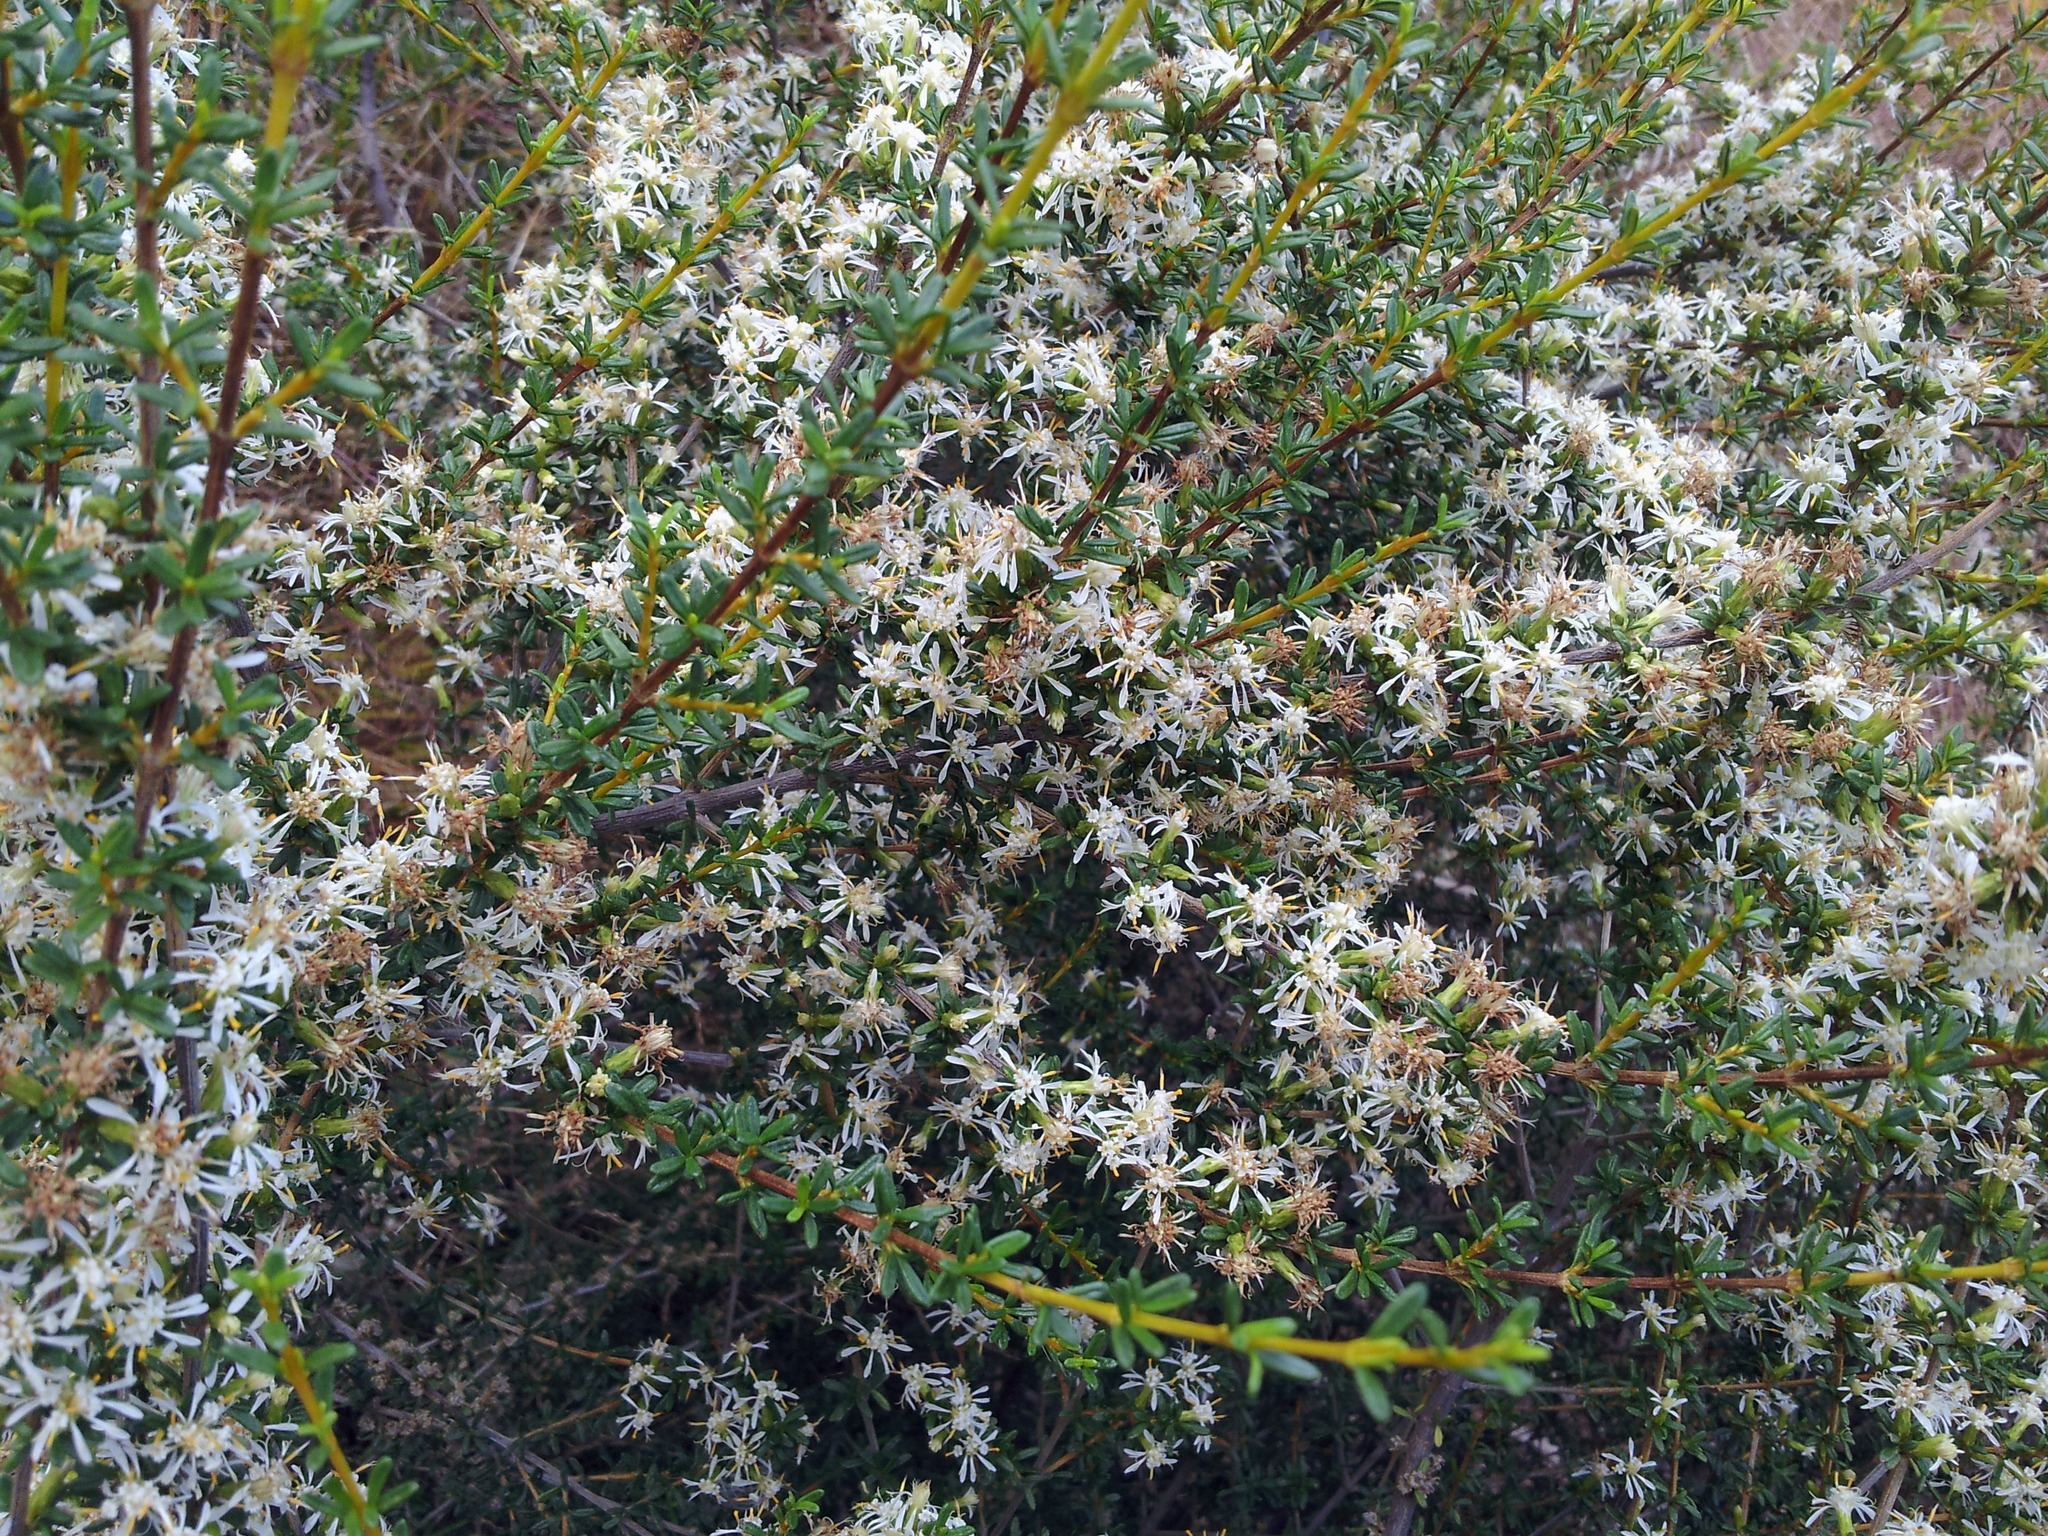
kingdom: Plantae
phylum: Tracheophyta
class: Magnoliopsida
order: Asterales
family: Asteraceae
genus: Olearia
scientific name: Olearia solandri
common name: Coastal daisybush
